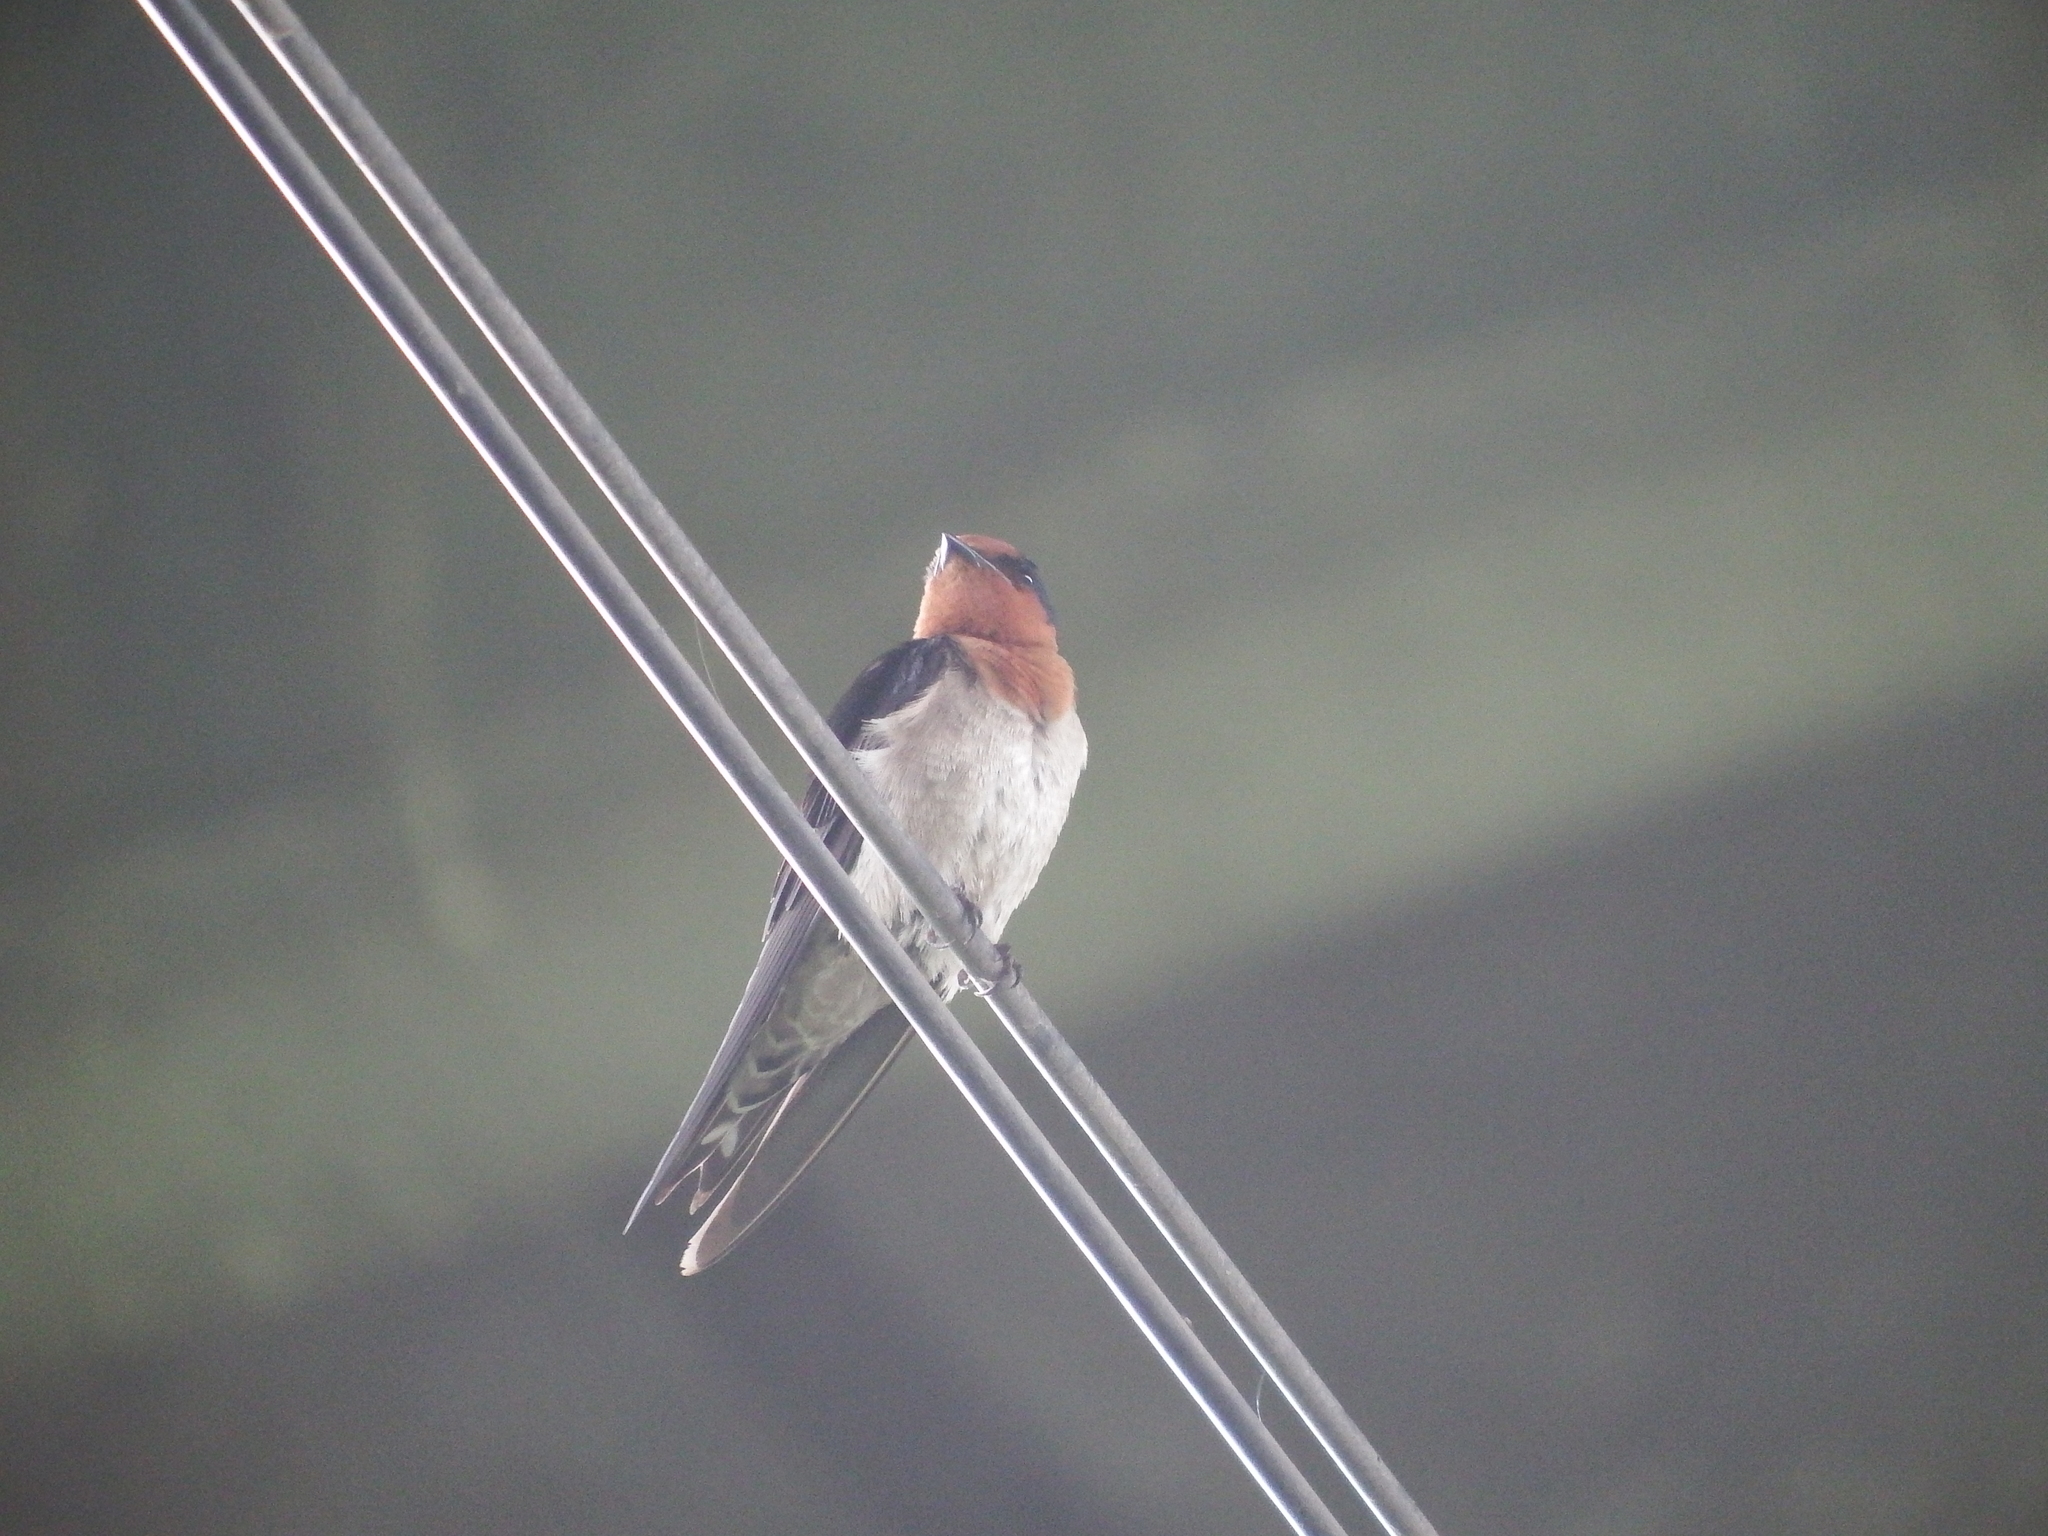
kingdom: Animalia
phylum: Chordata
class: Aves
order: Passeriformes
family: Hirundinidae
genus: Hirundo
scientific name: Hirundo tahitica
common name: Pacific swallow
